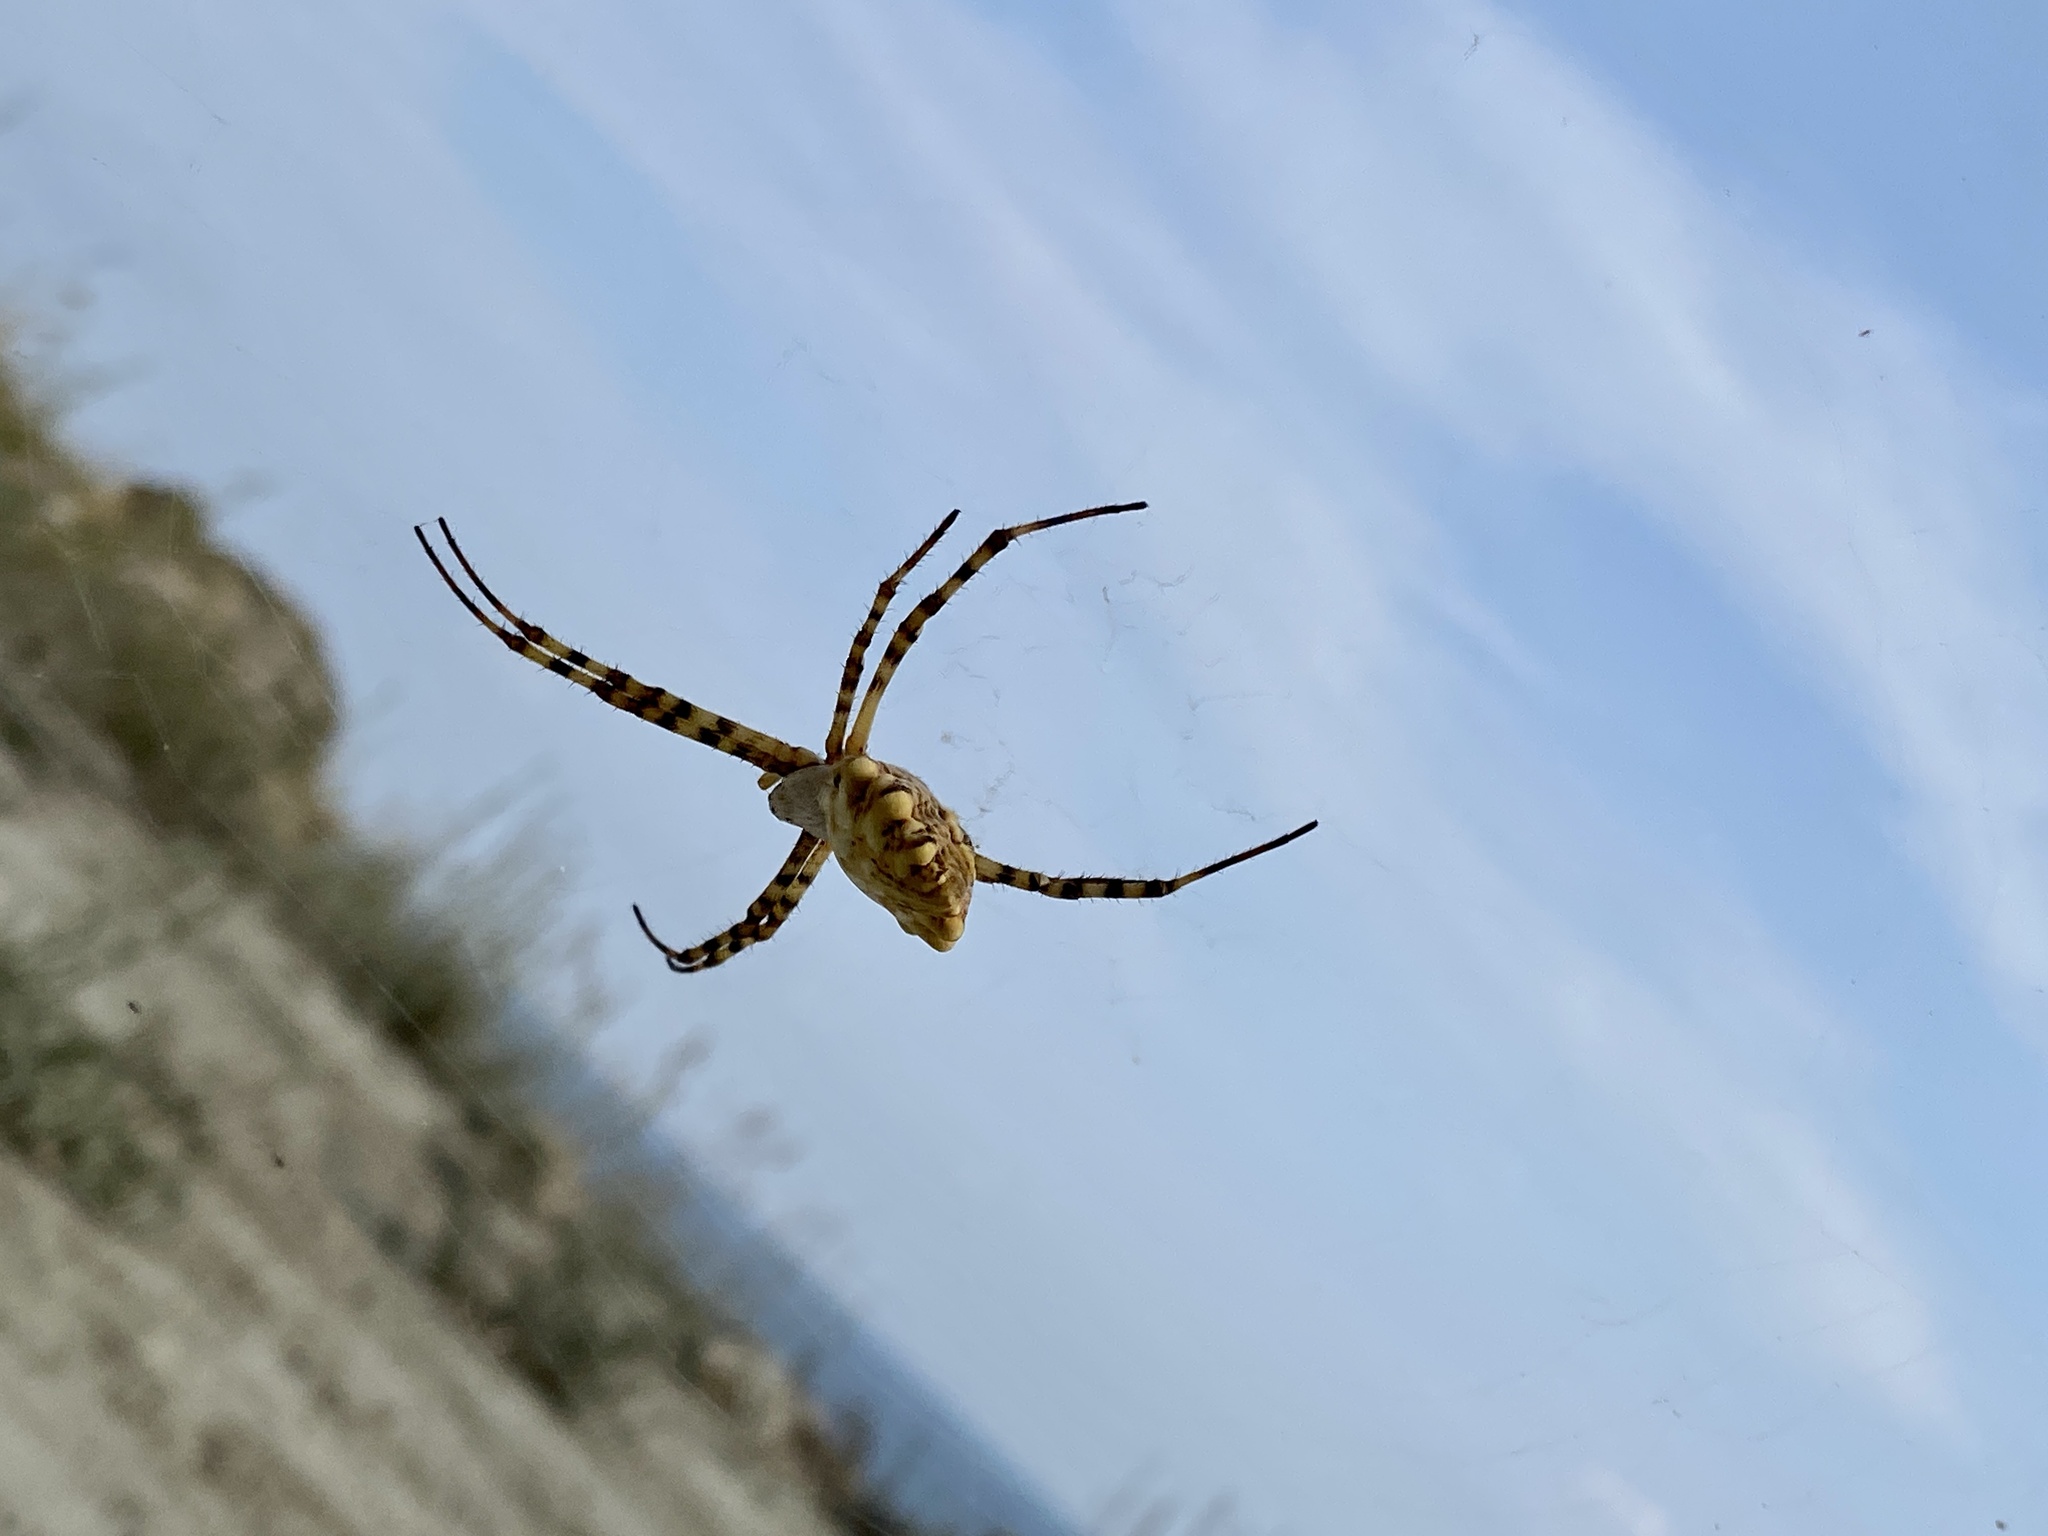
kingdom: Animalia
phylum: Arthropoda
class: Arachnida
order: Araneae
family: Araneidae
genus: Argiope
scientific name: Argiope lobata
